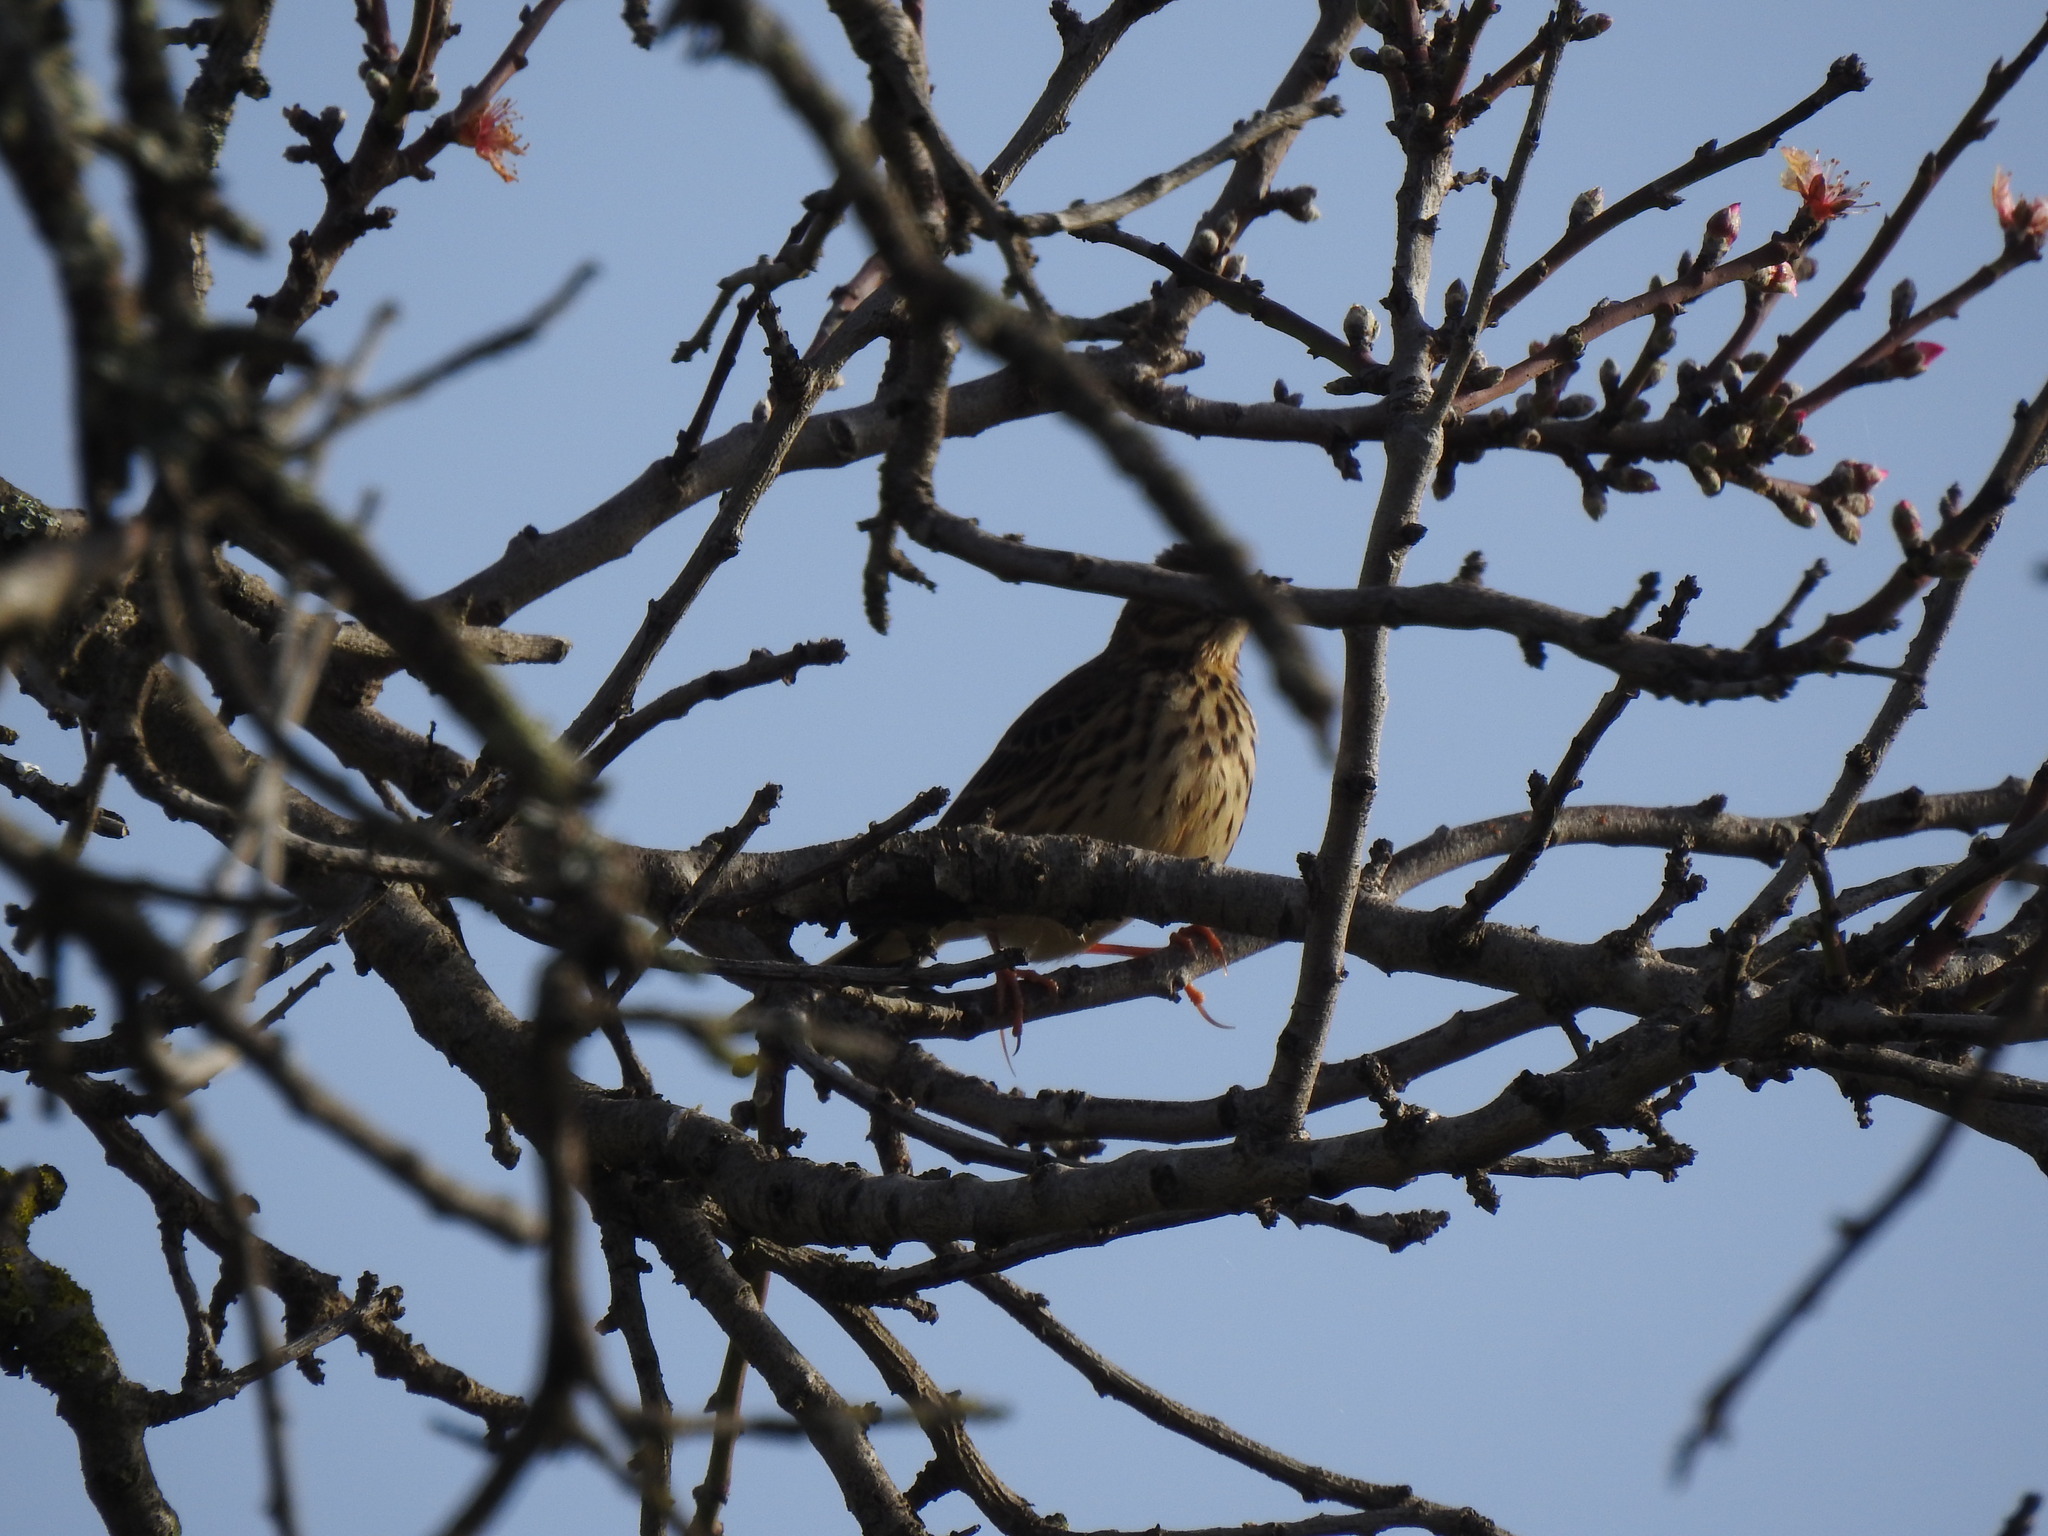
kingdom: Animalia
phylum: Chordata
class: Aves
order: Passeriformes
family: Motacillidae
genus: Anthus
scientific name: Anthus pratensis
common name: Meadow pipit
